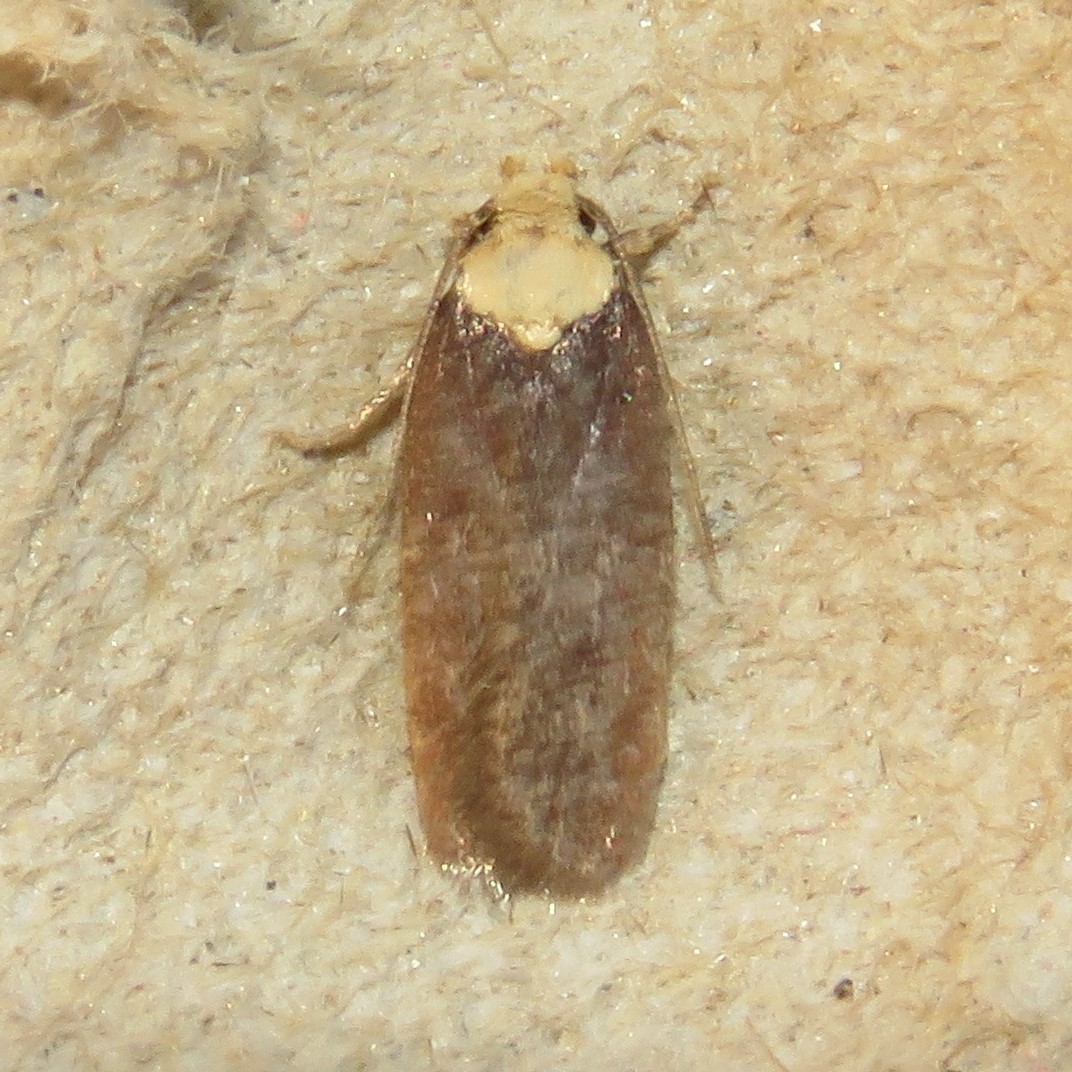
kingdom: Animalia
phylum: Arthropoda
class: Insecta
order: Lepidoptera
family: Depressariidae
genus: Depressaria
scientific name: Depressaria depressana
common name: Lost flat-body
